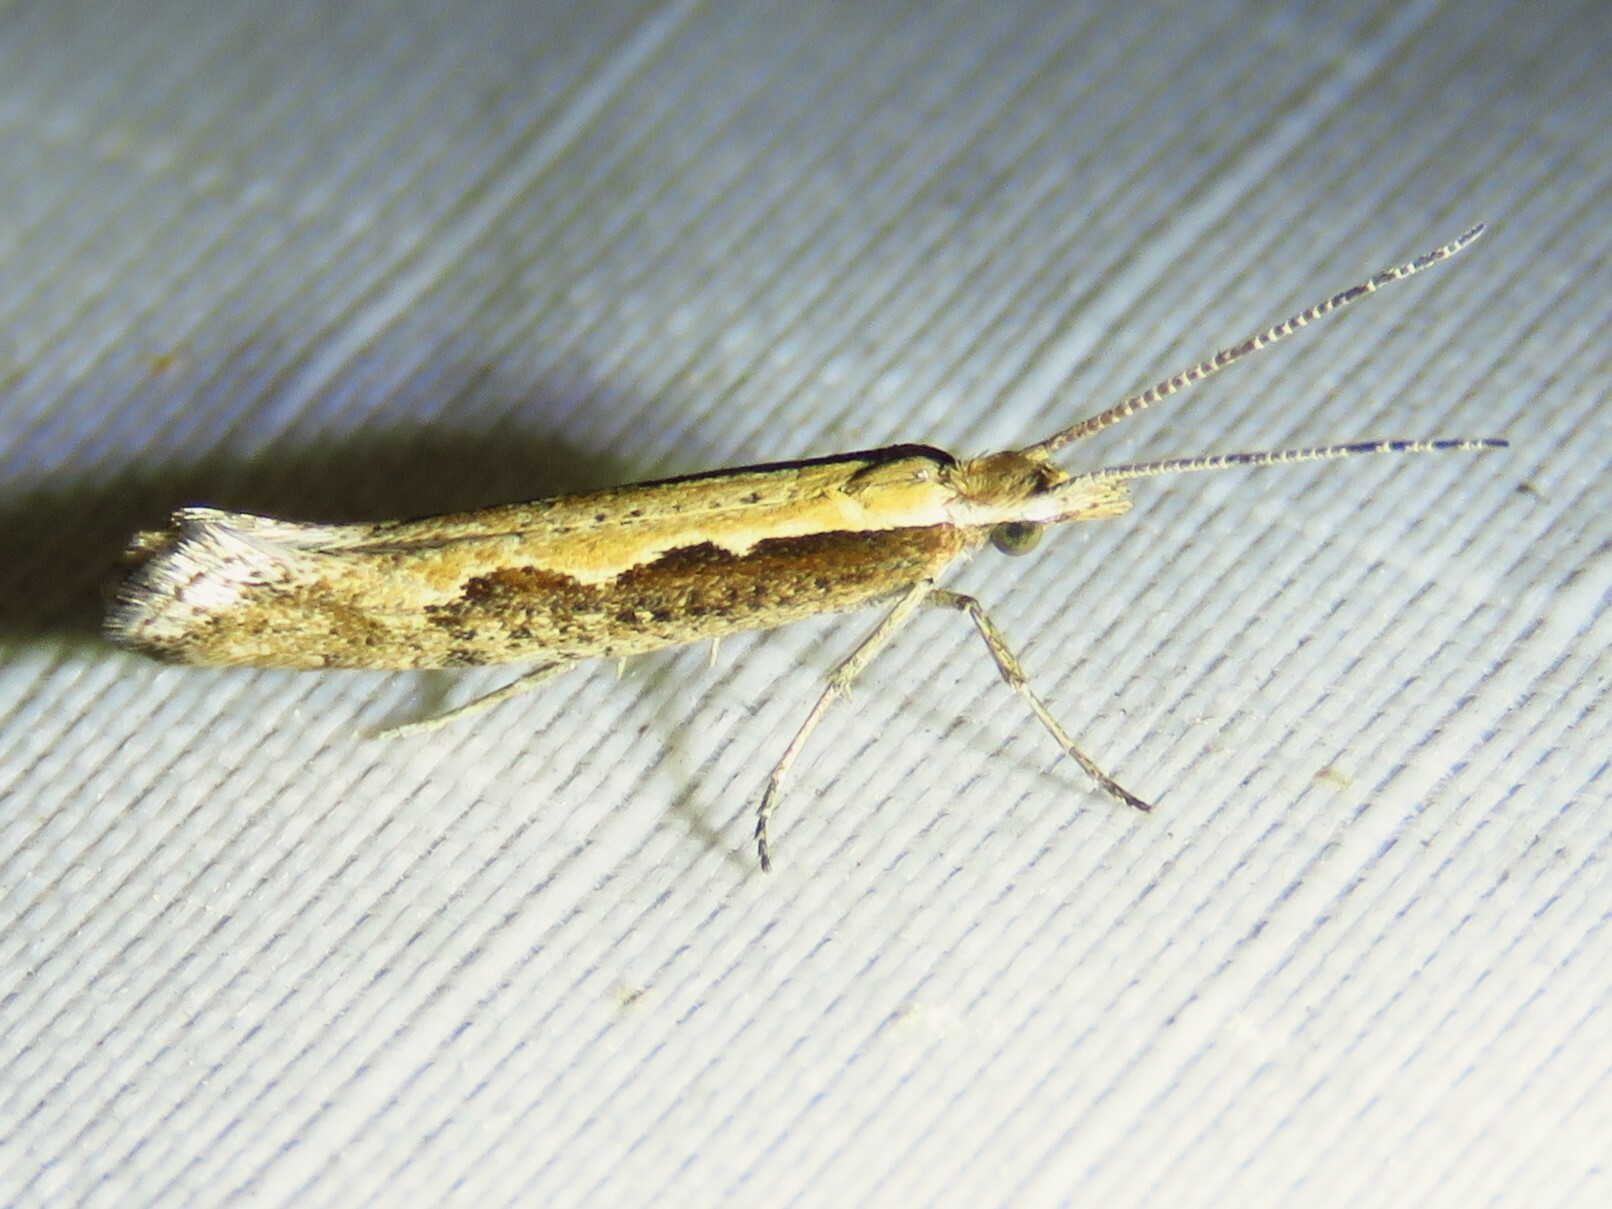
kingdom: Animalia
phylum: Arthropoda
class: Insecta
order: Lepidoptera
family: Plutellidae
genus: Plutella
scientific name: Plutella xylostella
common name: Diamond-back moth
